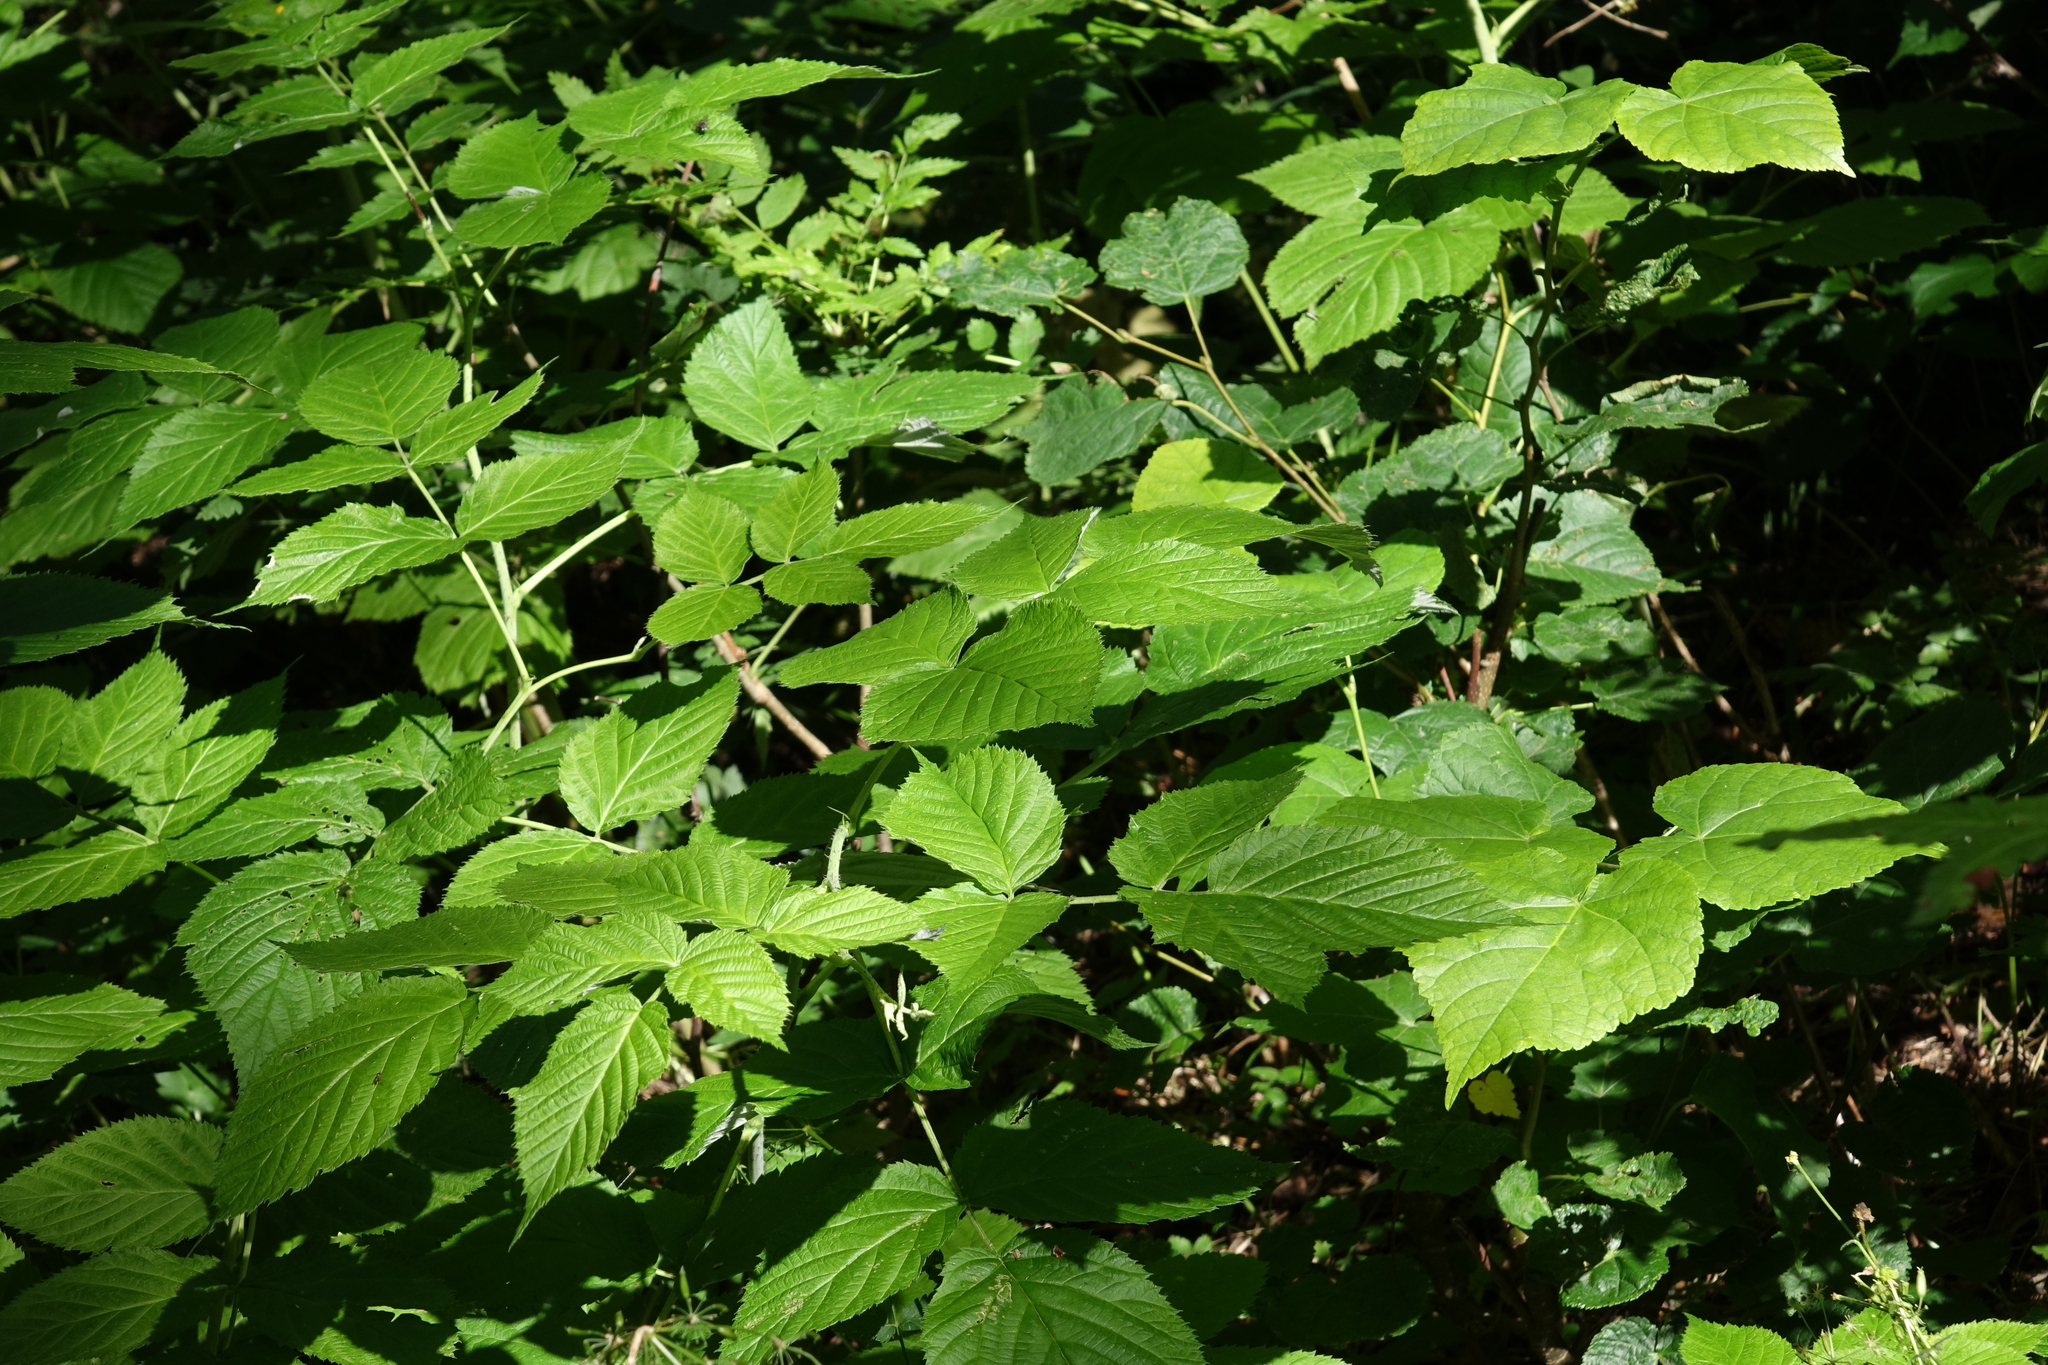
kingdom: Plantae
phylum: Tracheophyta
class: Magnoliopsida
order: Rosales
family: Rosaceae
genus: Rubus
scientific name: Rubus idaeus
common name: Raspberry
